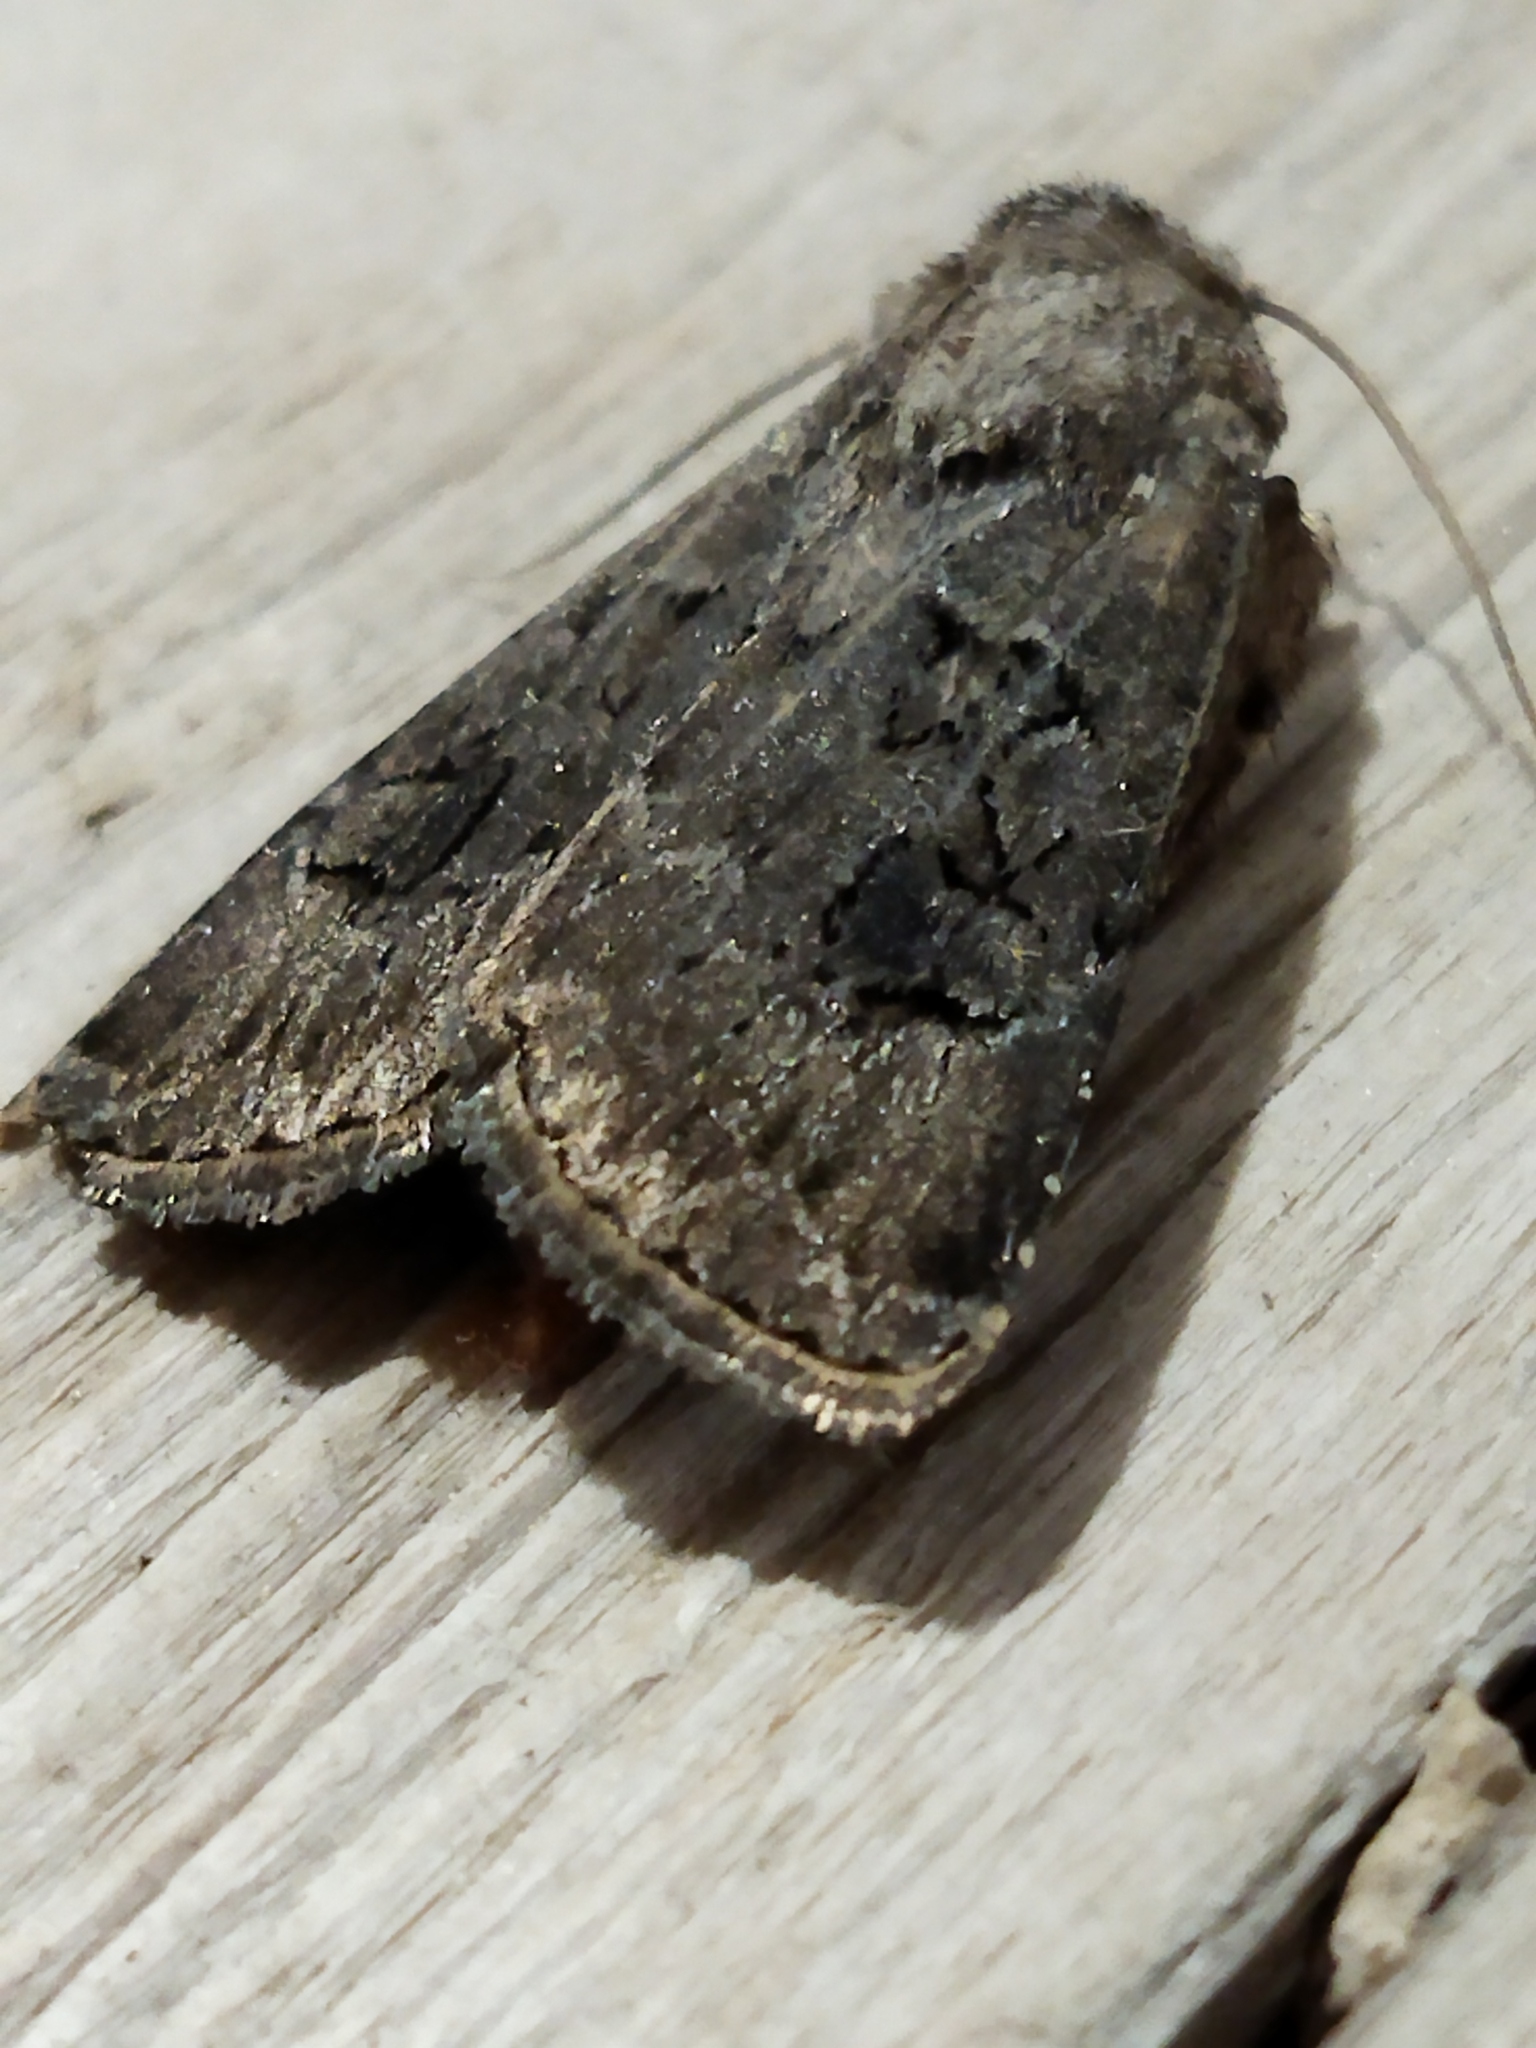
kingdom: Animalia
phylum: Arthropoda
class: Insecta
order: Lepidoptera
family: Noctuidae
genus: Agrotis
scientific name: Agrotis bigramma
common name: Great dart
